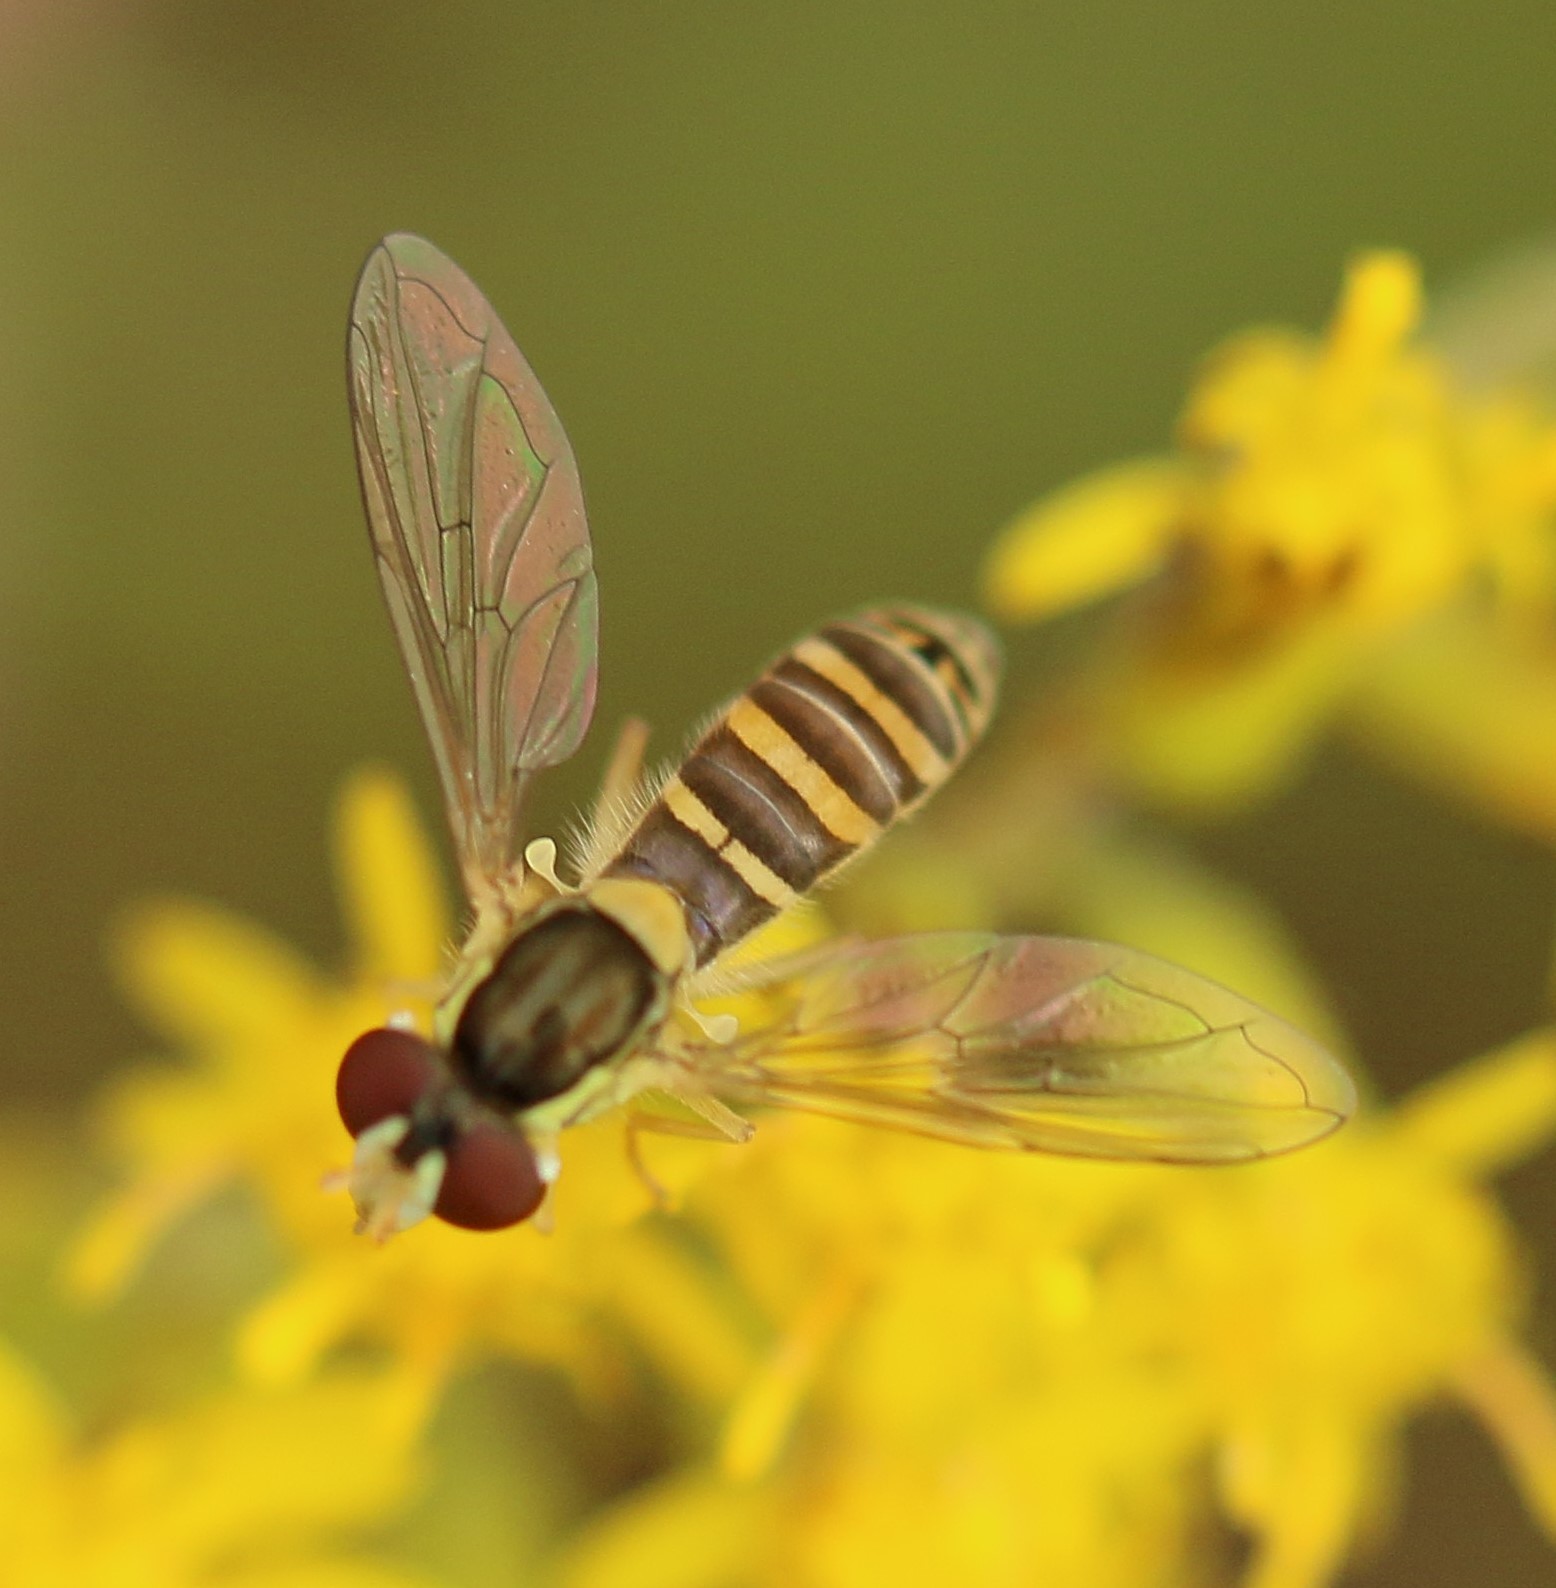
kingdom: Animalia
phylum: Arthropoda
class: Insecta
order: Diptera
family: Syrphidae
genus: Sphaerophoria
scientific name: Sphaerophoria
